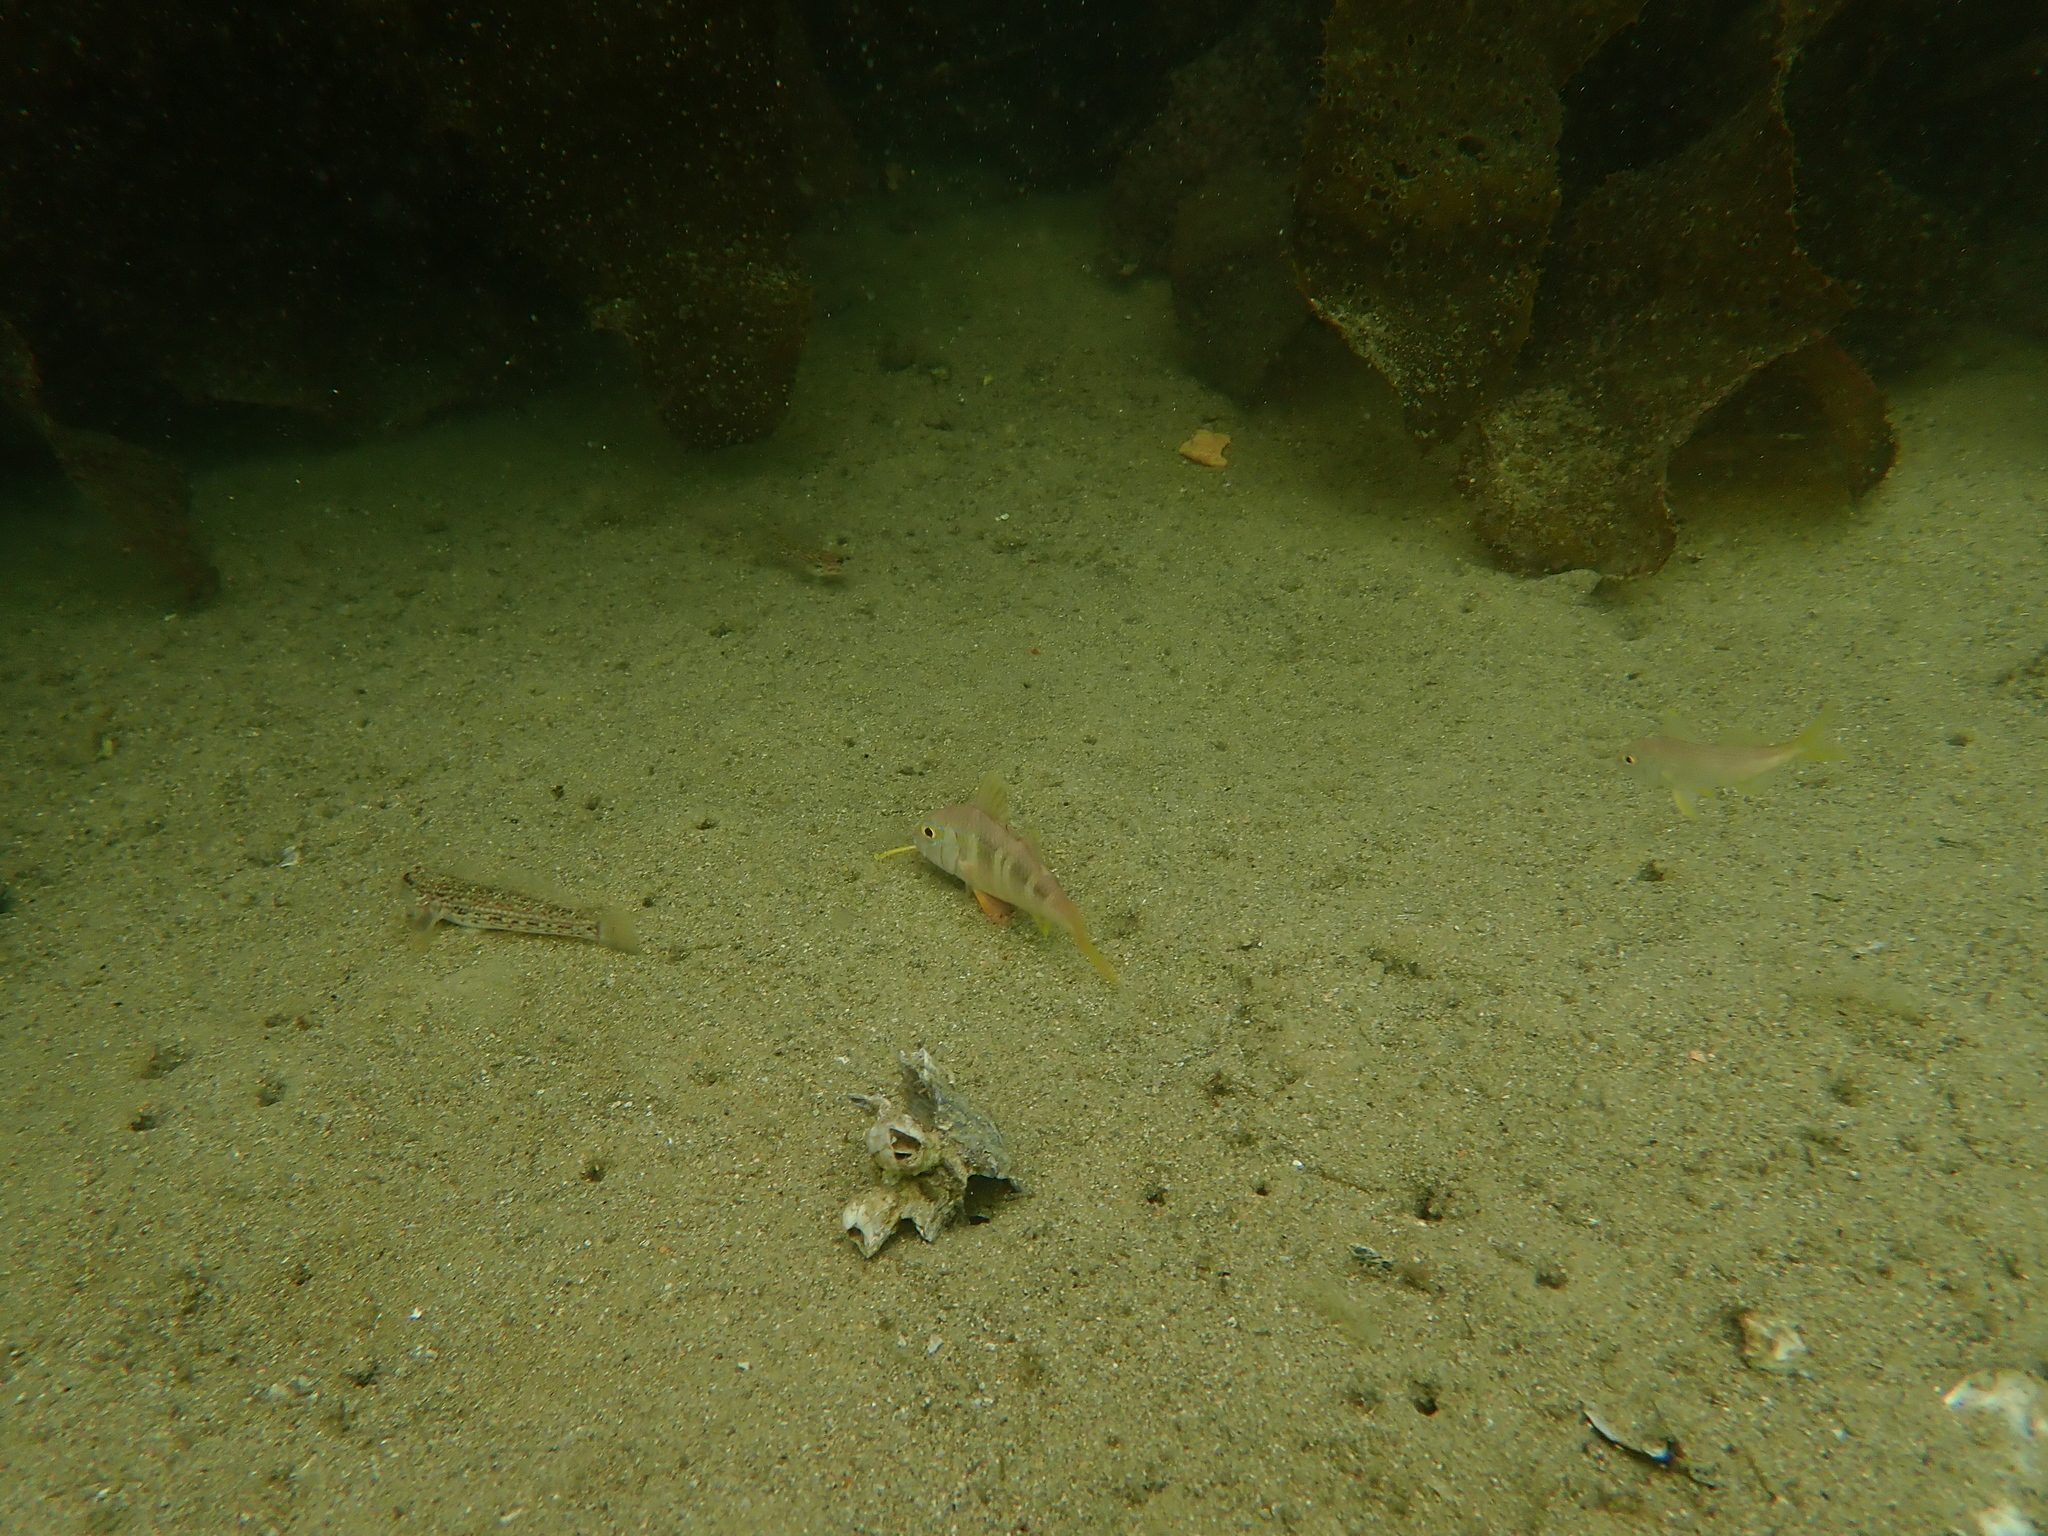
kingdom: Animalia
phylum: Chordata
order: Perciformes
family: Gobiidae
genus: Istigobius
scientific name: Istigobius hoesei
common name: Hoese's sandgoby
